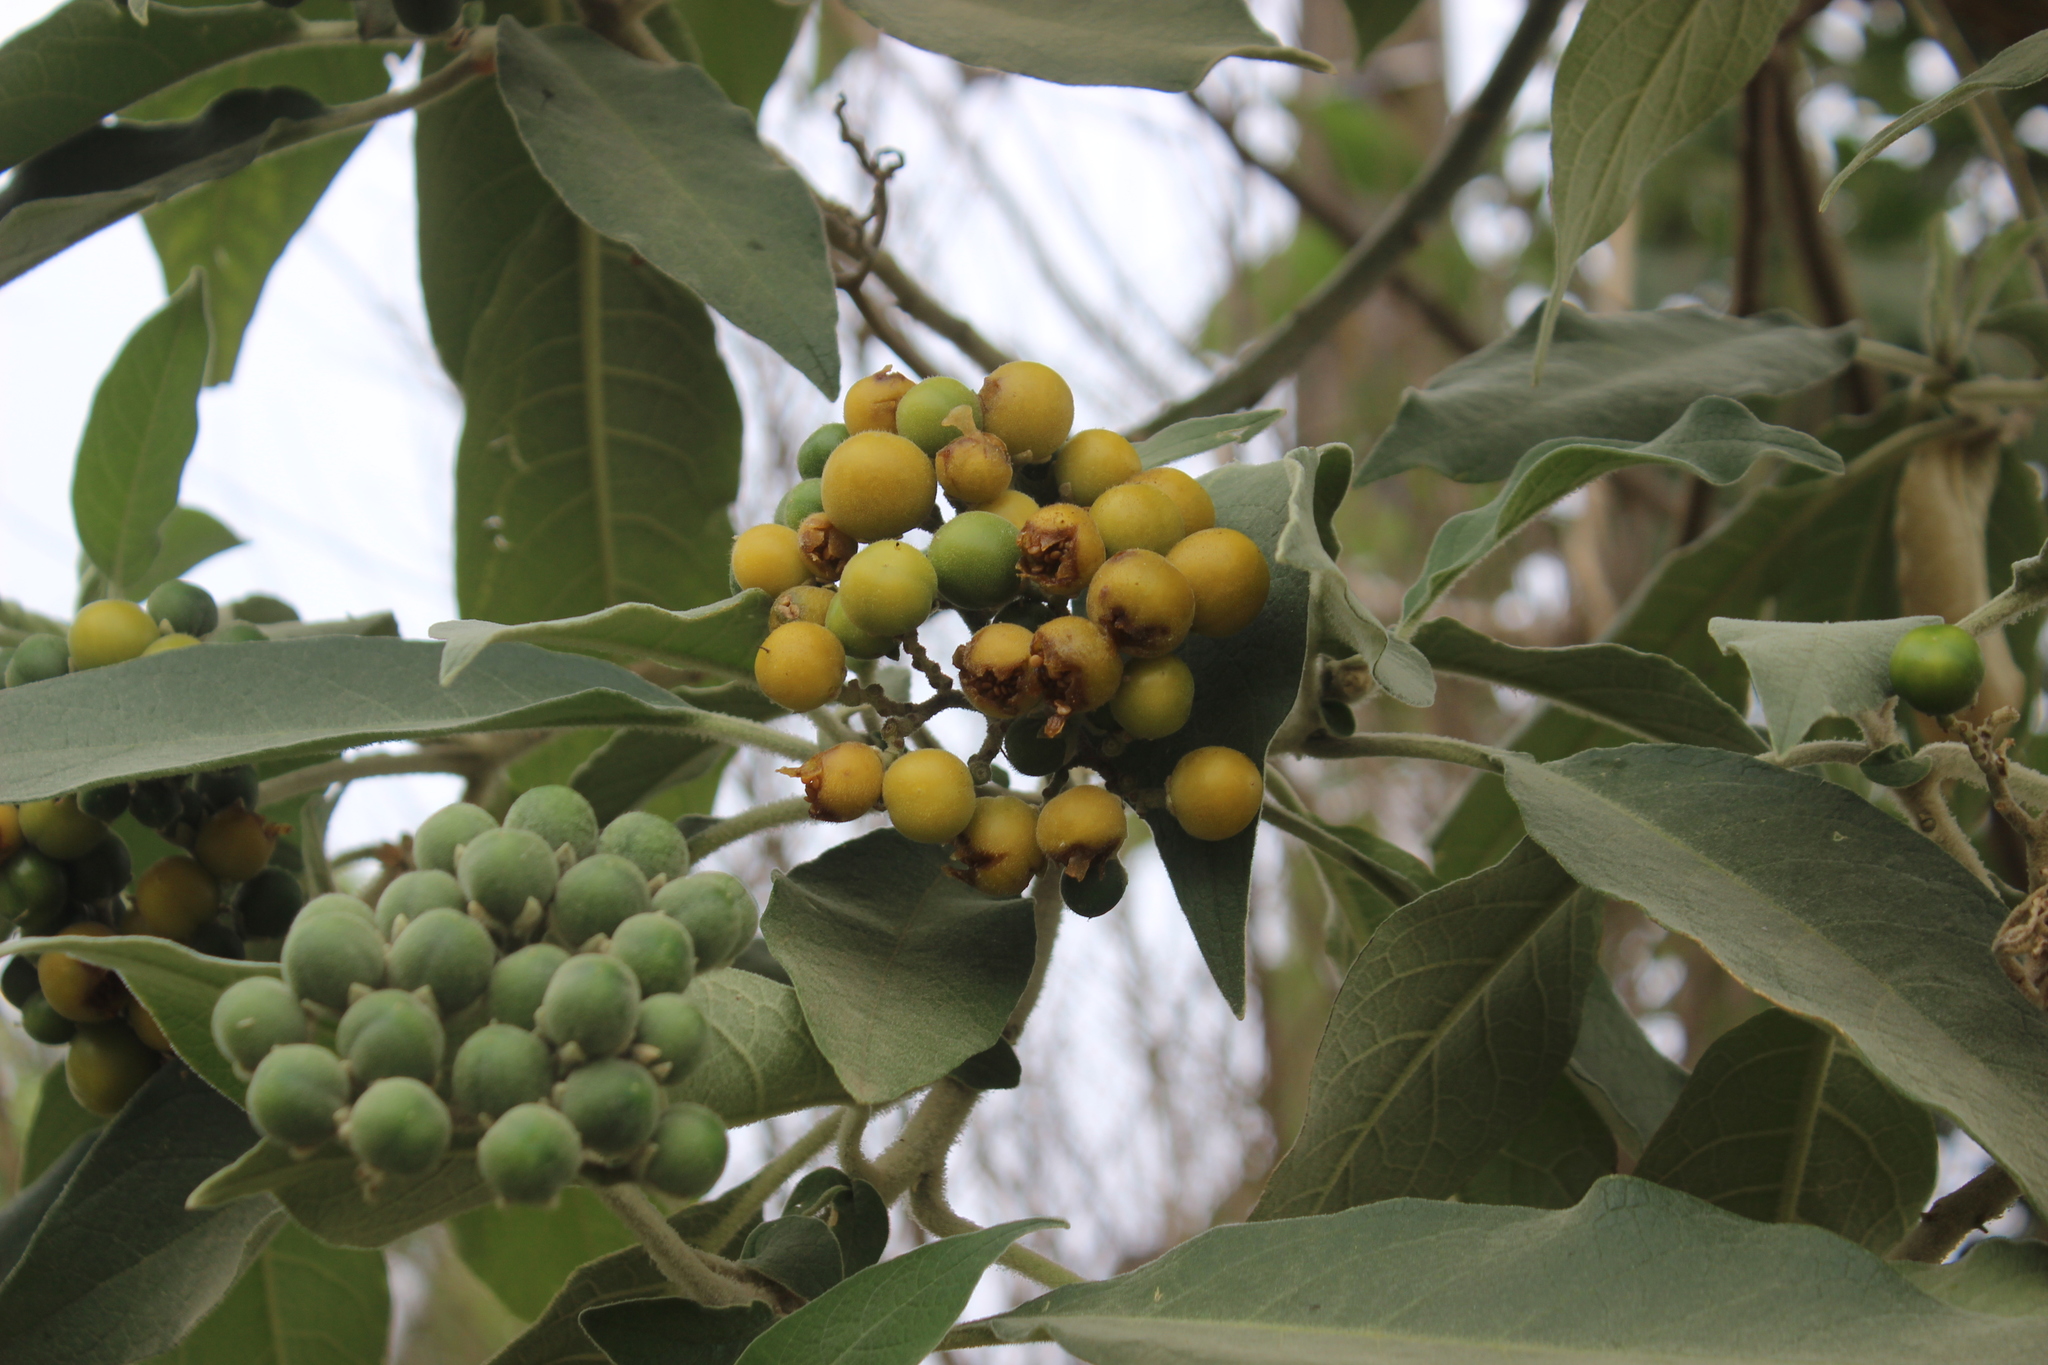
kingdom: Plantae
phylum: Tracheophyta
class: Magnoliopsida
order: Solanales
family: Solanaceae
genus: Solanum
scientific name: Solanum mauritianum
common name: Earleaf nightshade
